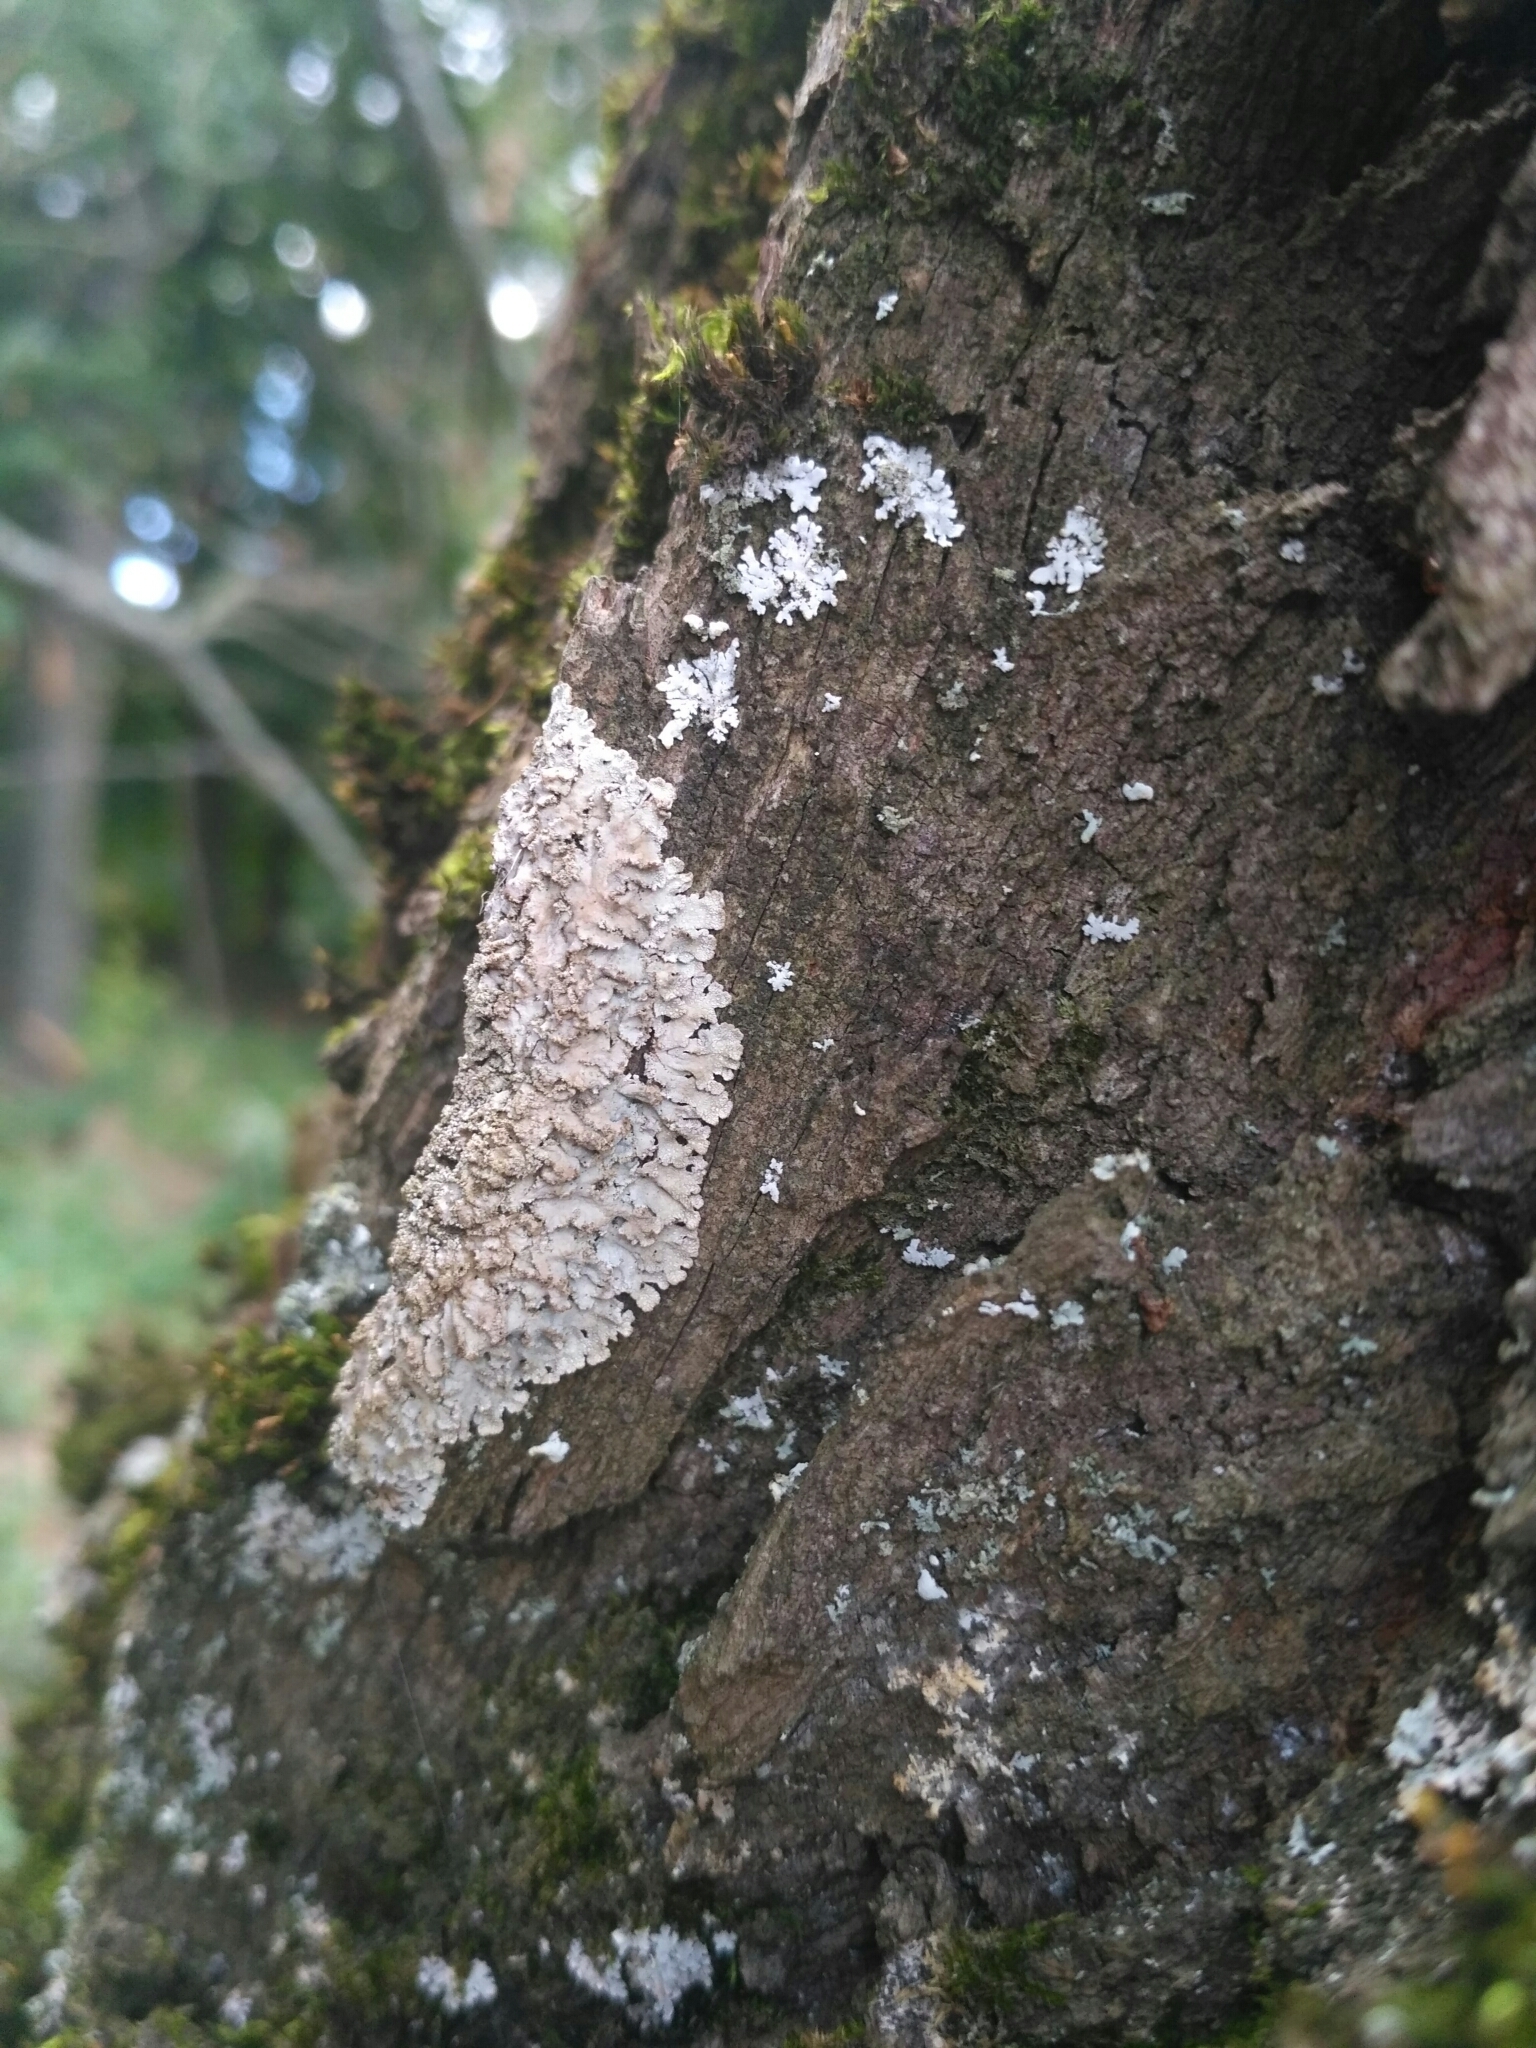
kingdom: Fungi
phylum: Ascomycota
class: Lecanoromycetes
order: Caliciales
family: Physciaceae
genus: Poeltonia
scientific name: Poeltonia grisea
